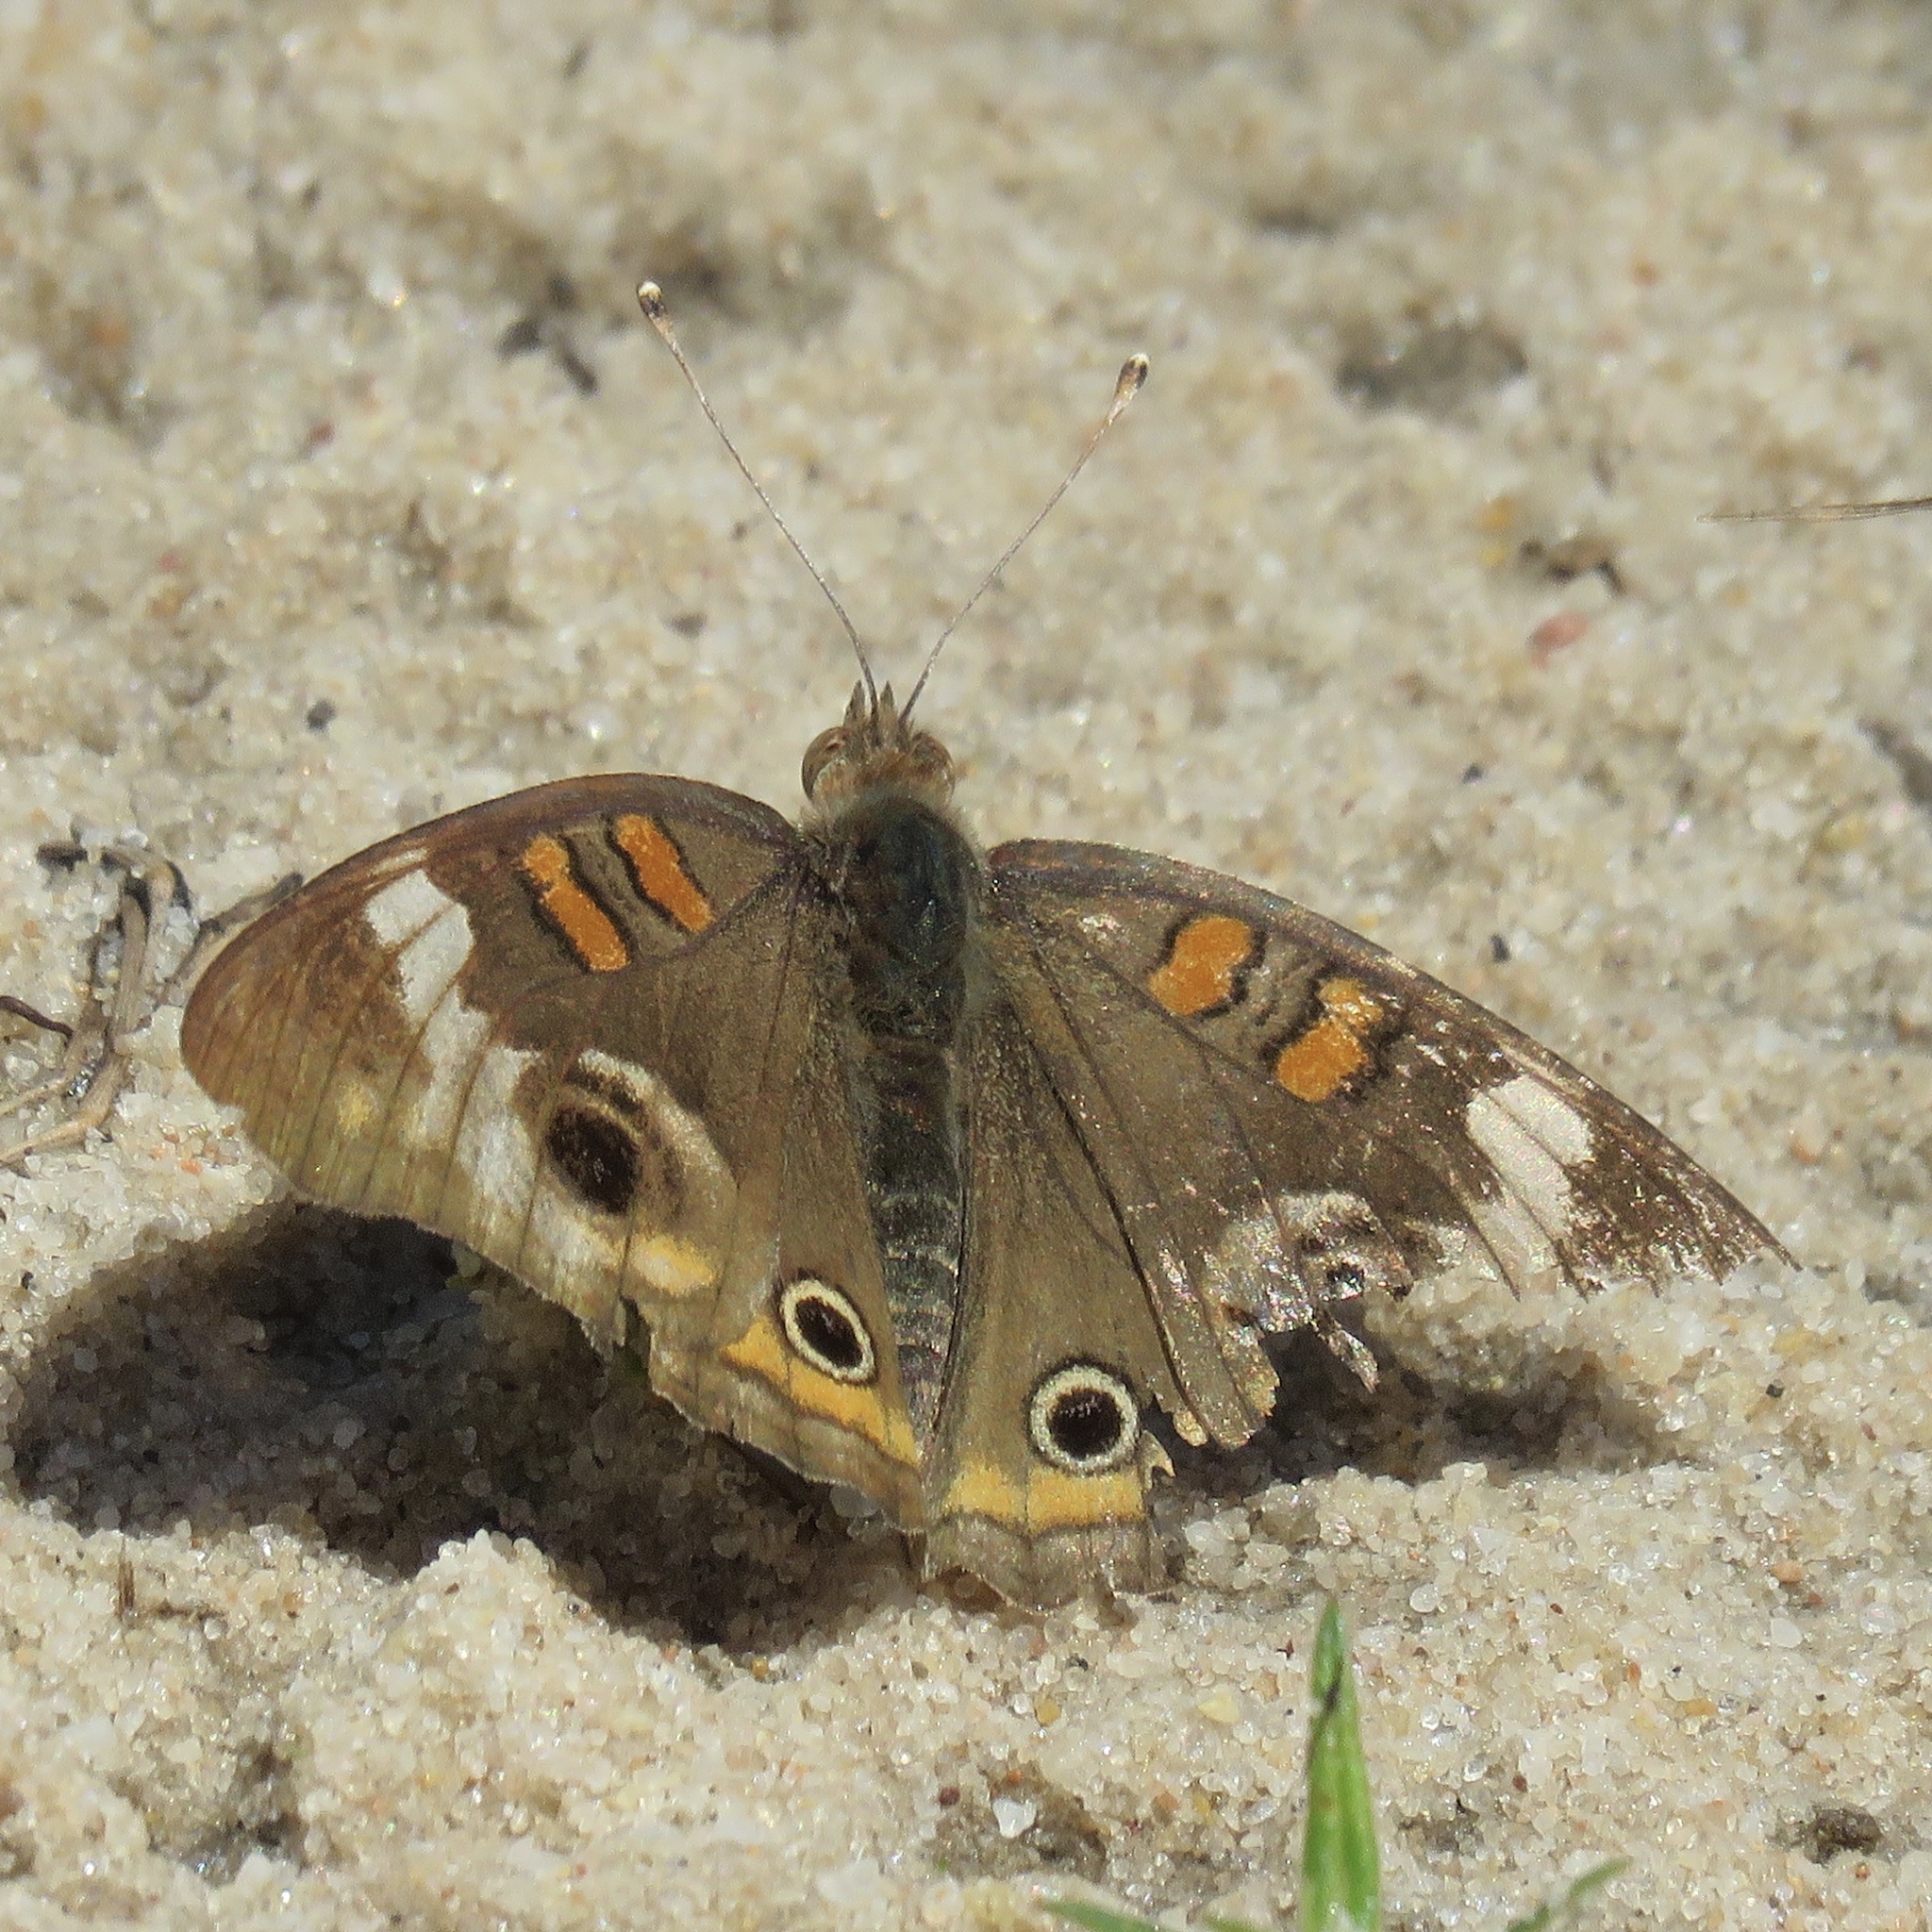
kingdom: Animalia
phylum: Arthropoda
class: Insecta
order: Lepidoptera
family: Nymphalidae
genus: Junonia
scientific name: Junonia coenia
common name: Common buckeye
